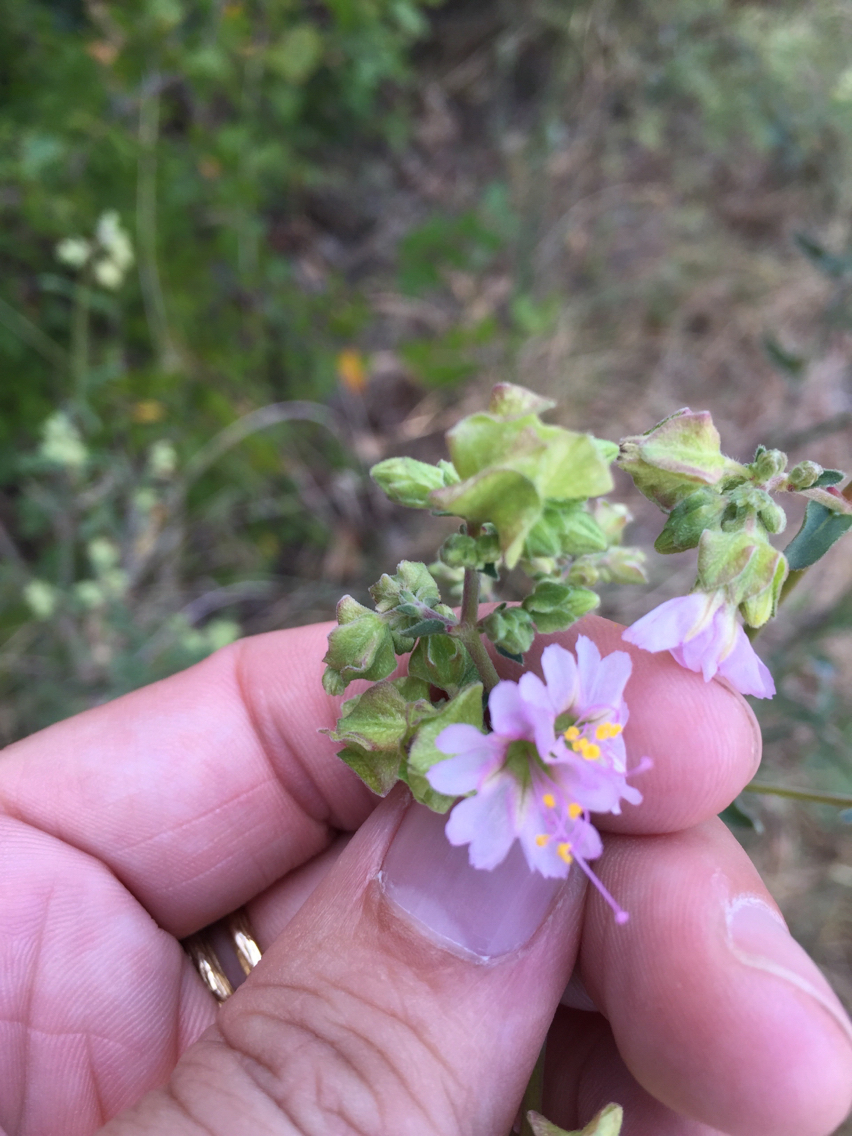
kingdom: Plantae
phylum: Tracheophyta
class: Magnoliopsida
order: Caryophyllales
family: Nyctaginaceae
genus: Mirabilis
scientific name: Mirabilis albida
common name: Hairy four-o'clock
